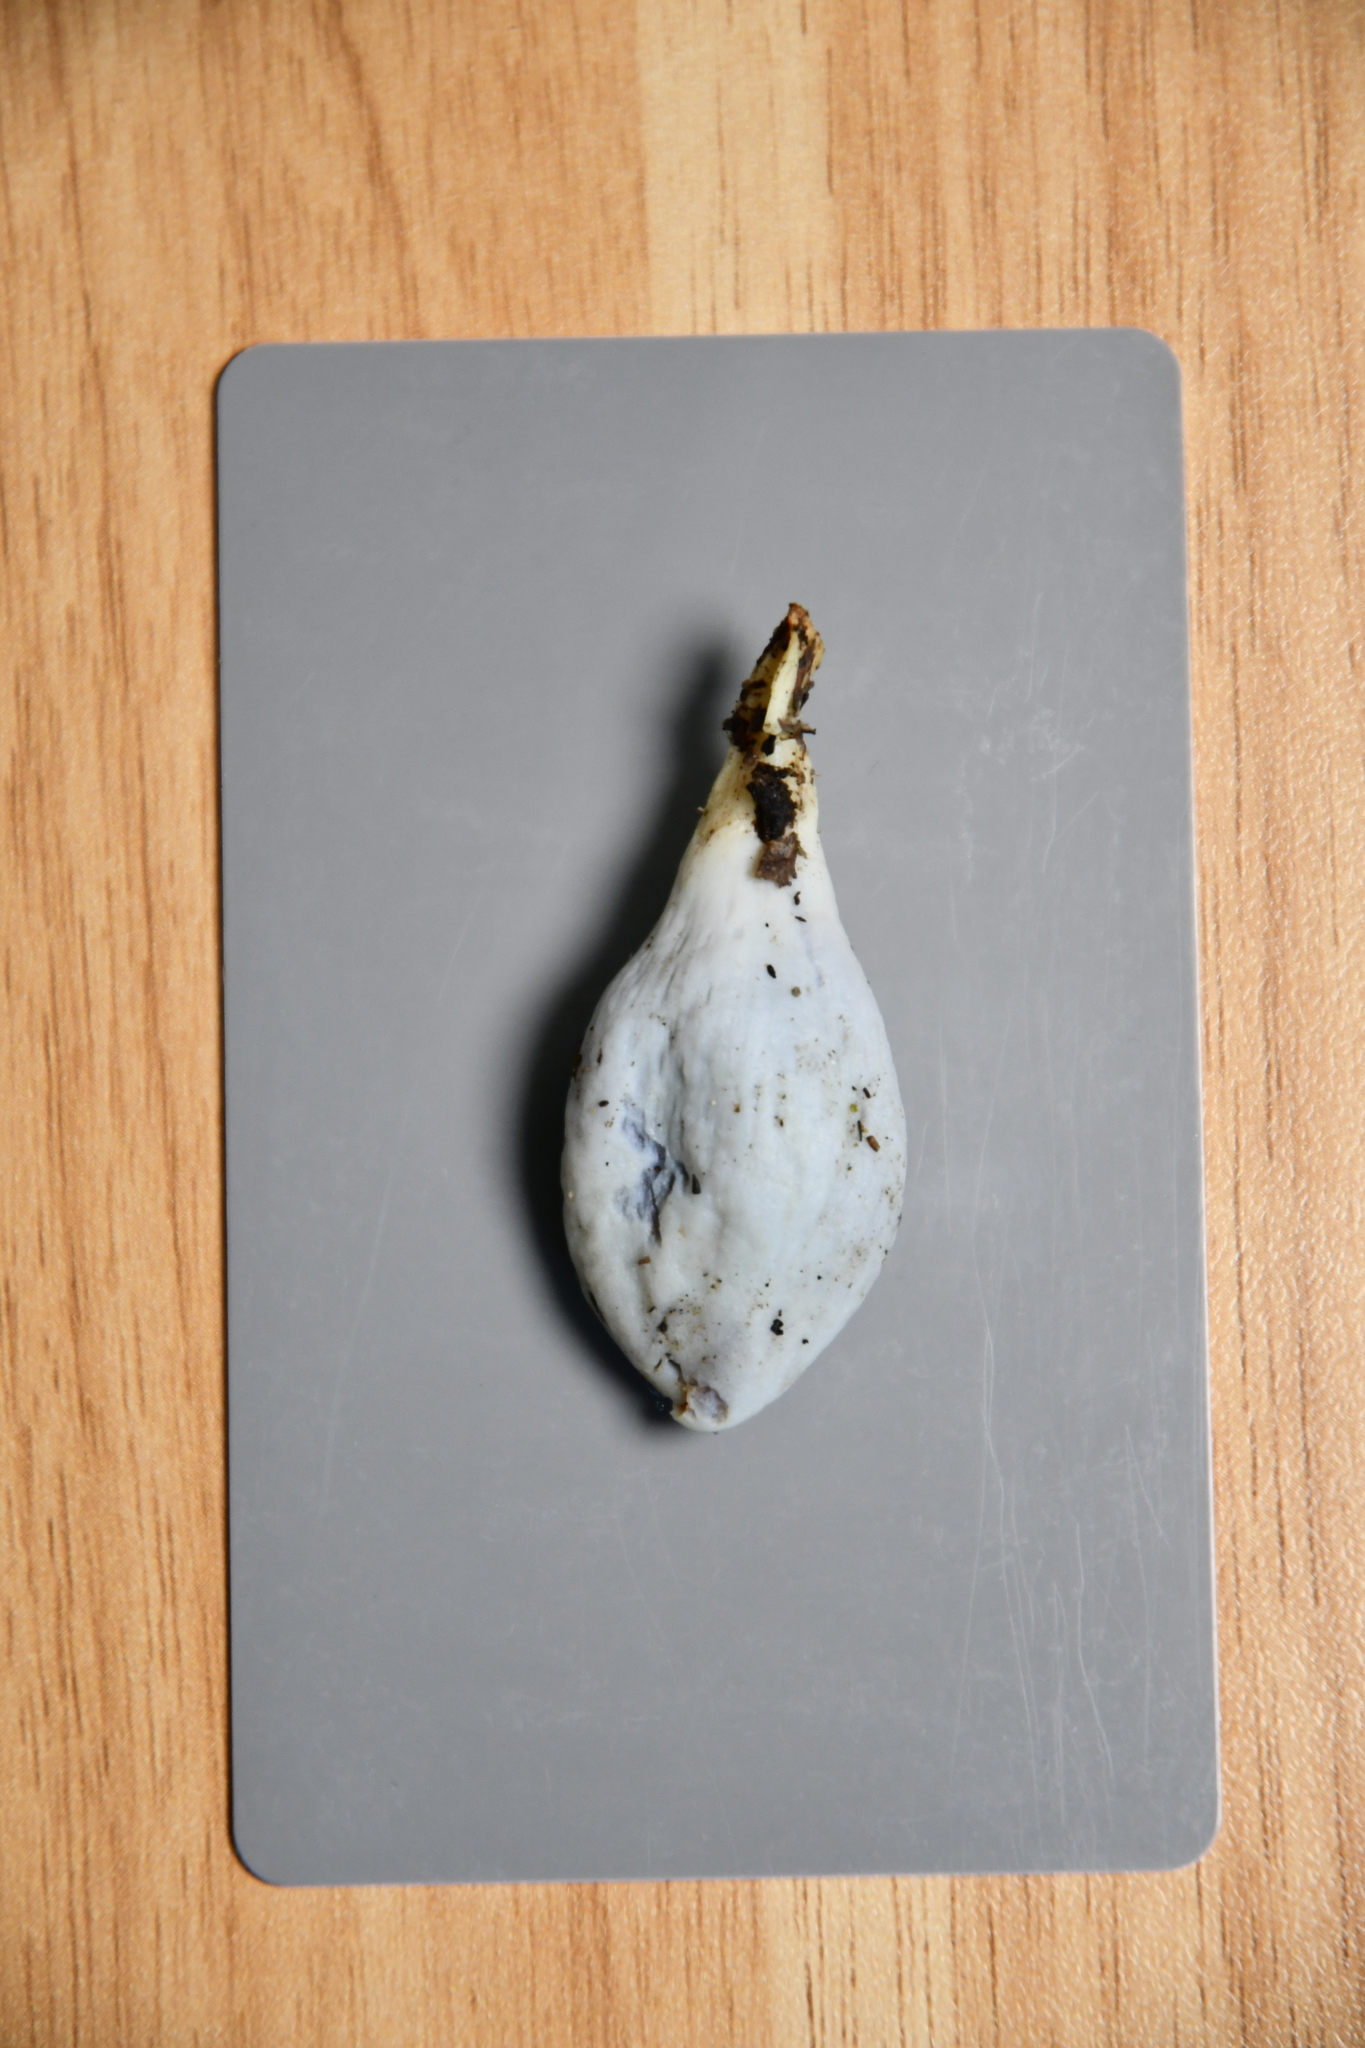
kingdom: Fungi
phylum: Basidiomycota
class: Agaricomycetes
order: Agaricales
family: Agaricaceae
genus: Clavogaster
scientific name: Clavogaster virescens
